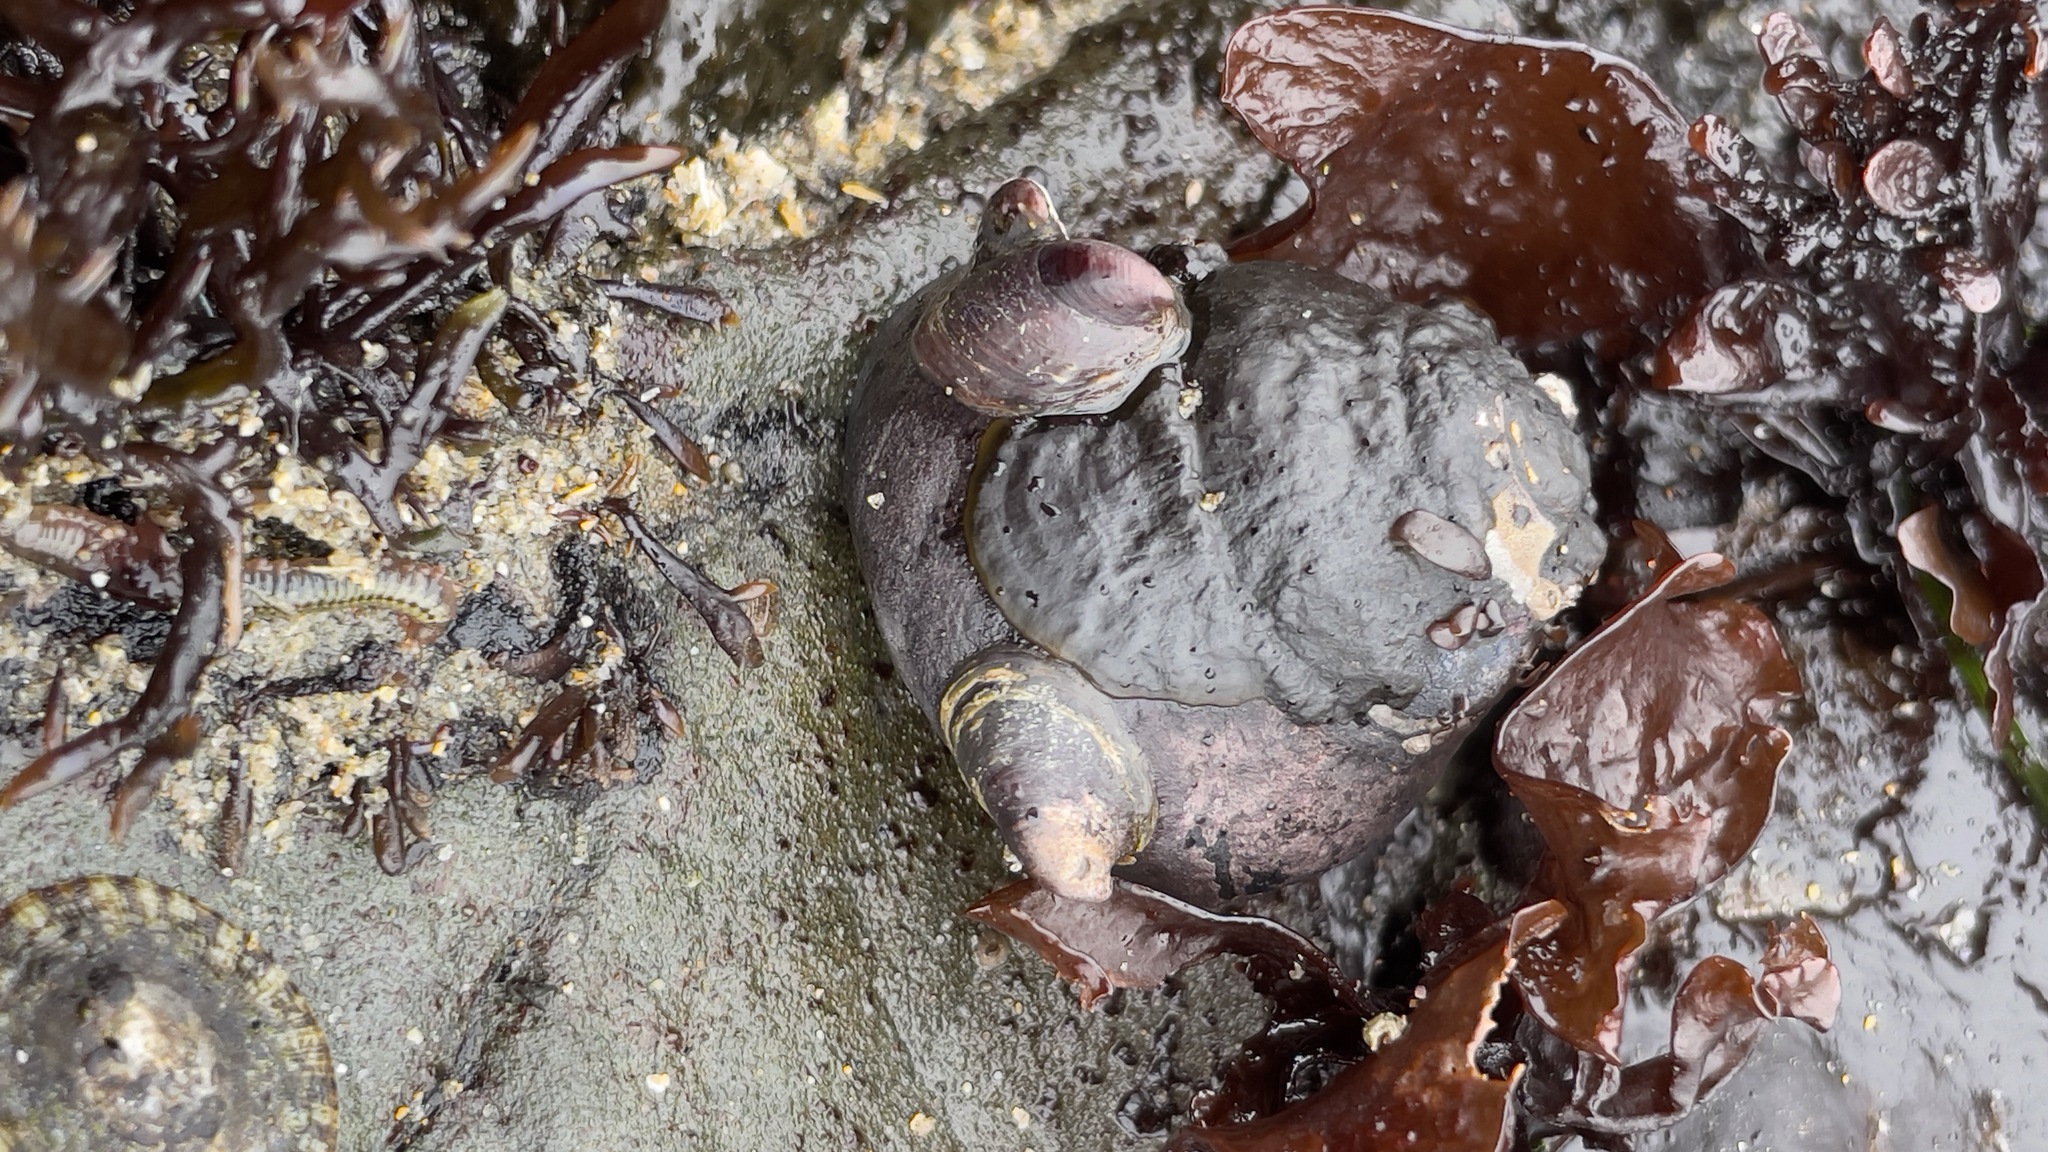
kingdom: Animalia
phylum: Mollusca
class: Gastropoda
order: Trochida
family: Tegulidae
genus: Tegula
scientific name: Tegula funebralis
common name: Black tegula
